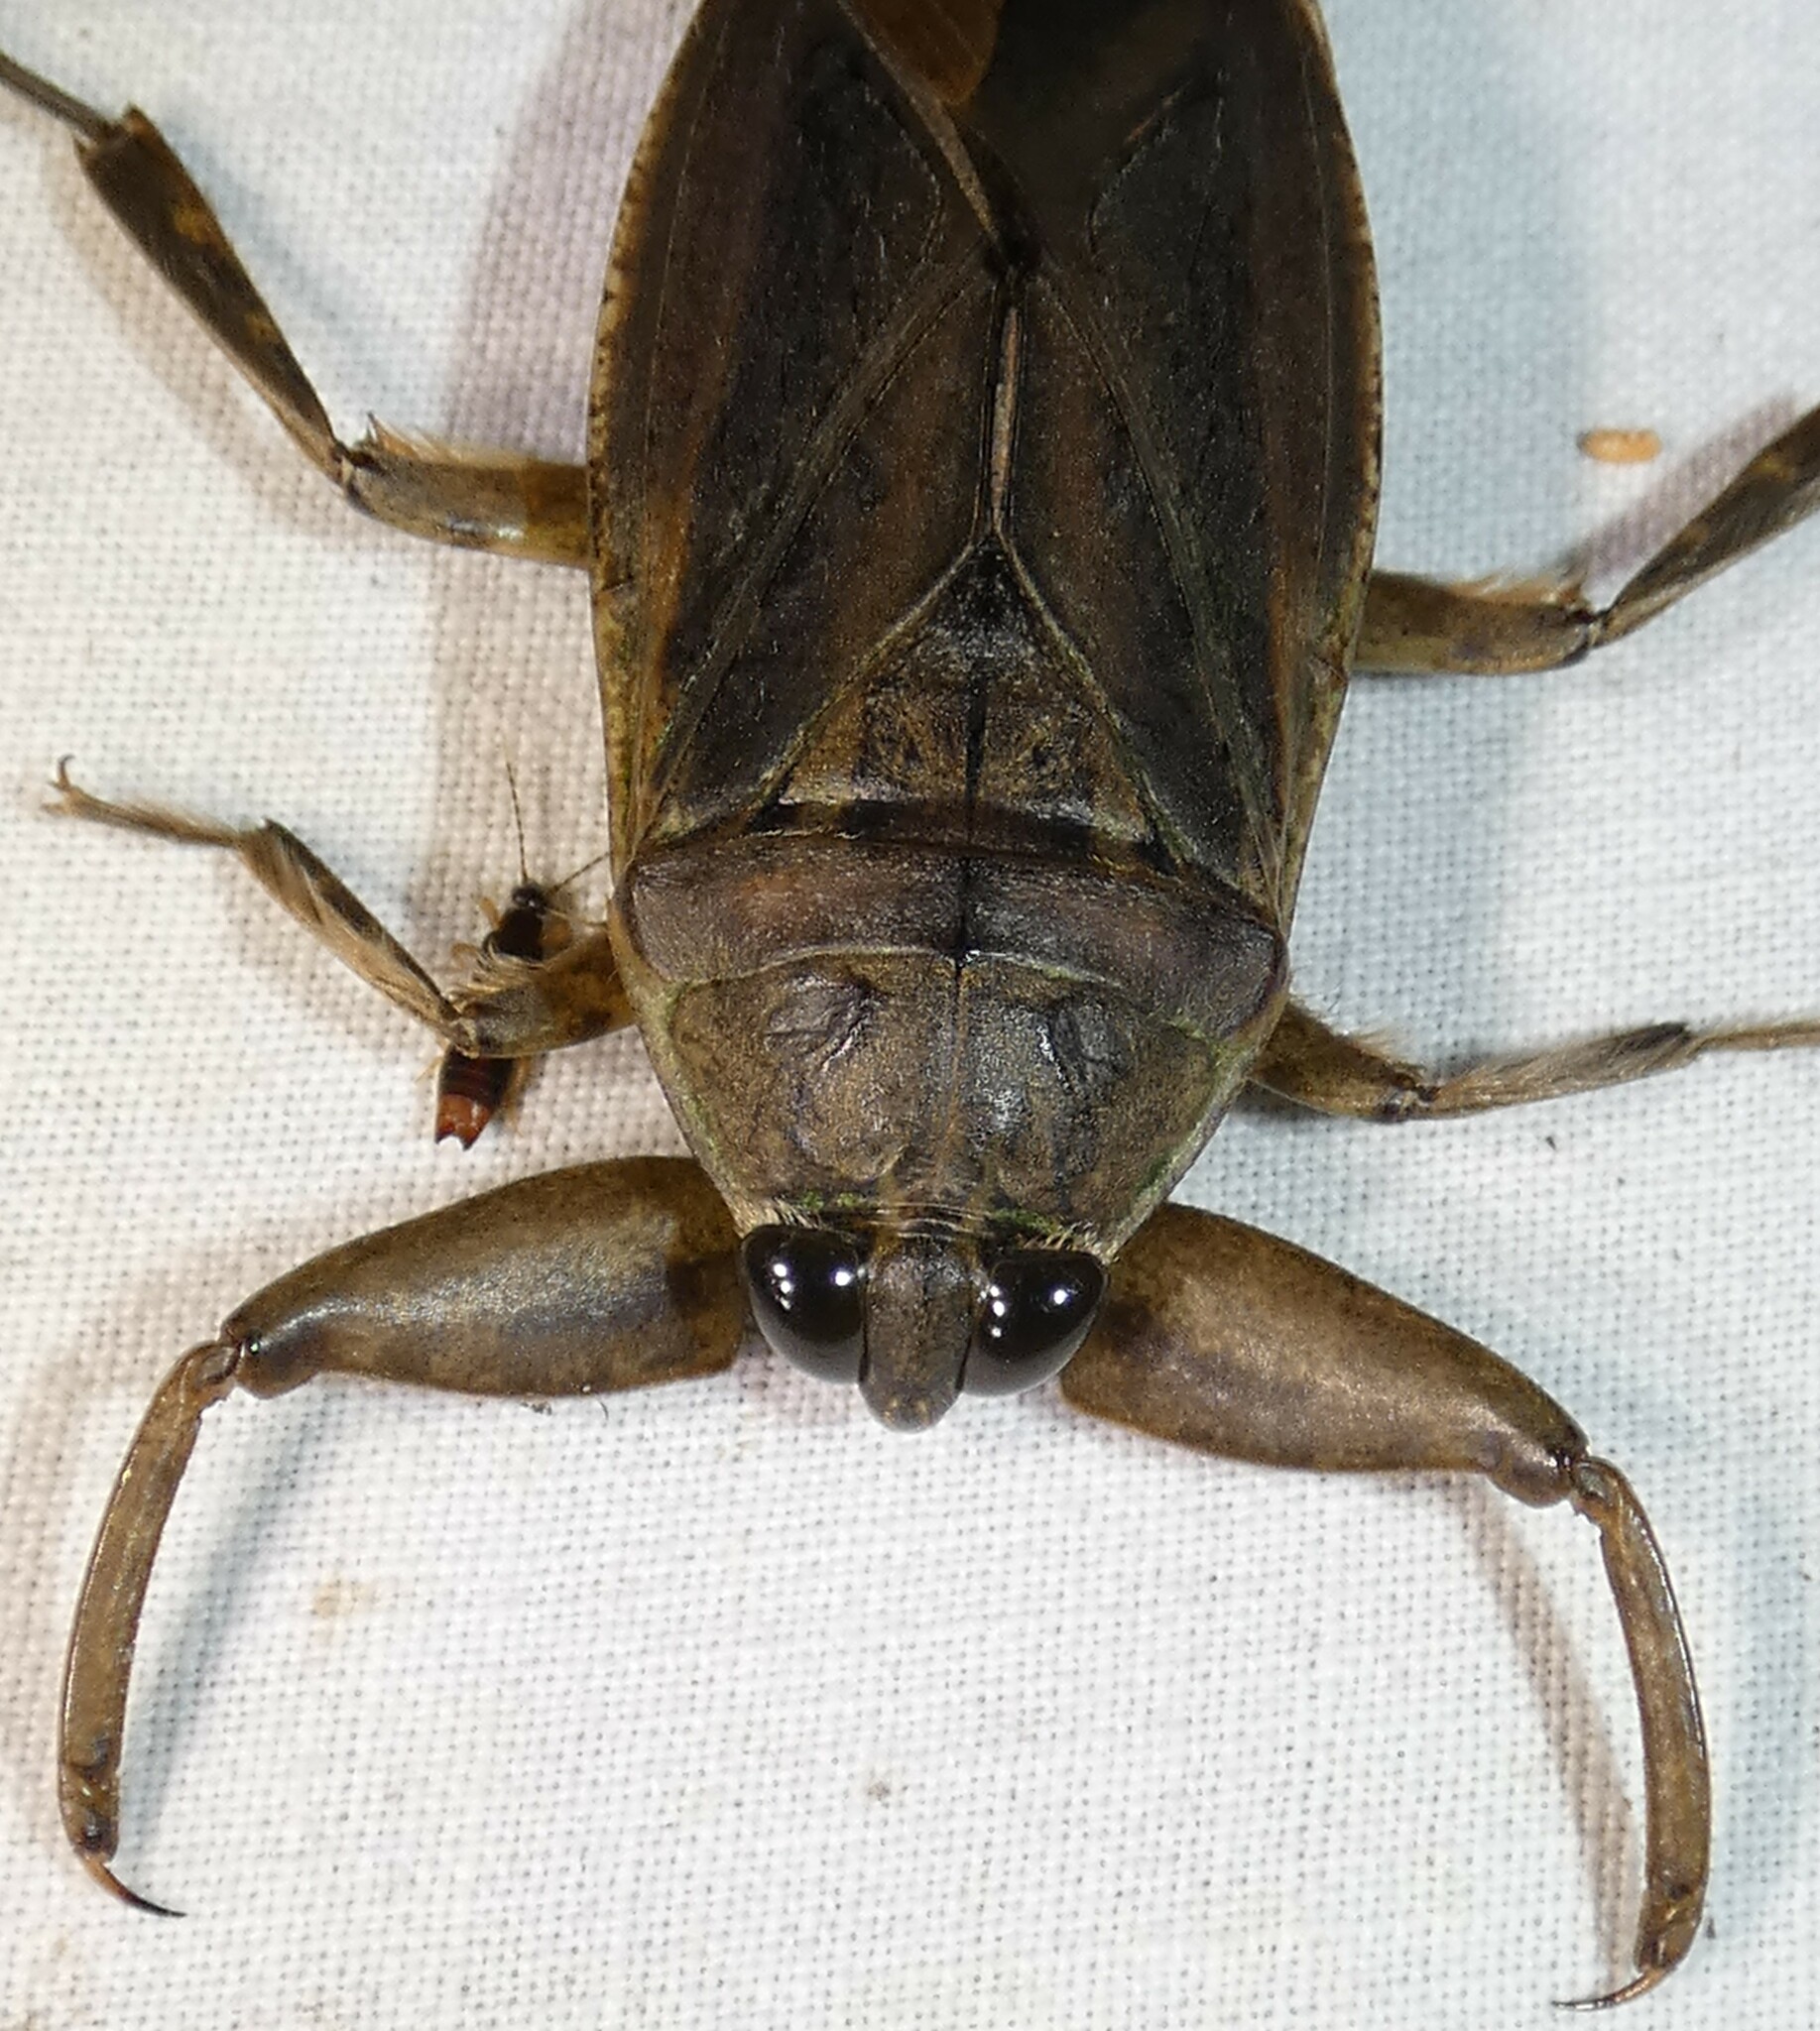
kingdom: Animalia
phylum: Arthropoda
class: Insecta
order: Hemiptera
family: Belostomatidae
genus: Lethocerus
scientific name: Lethocerus uhleri
